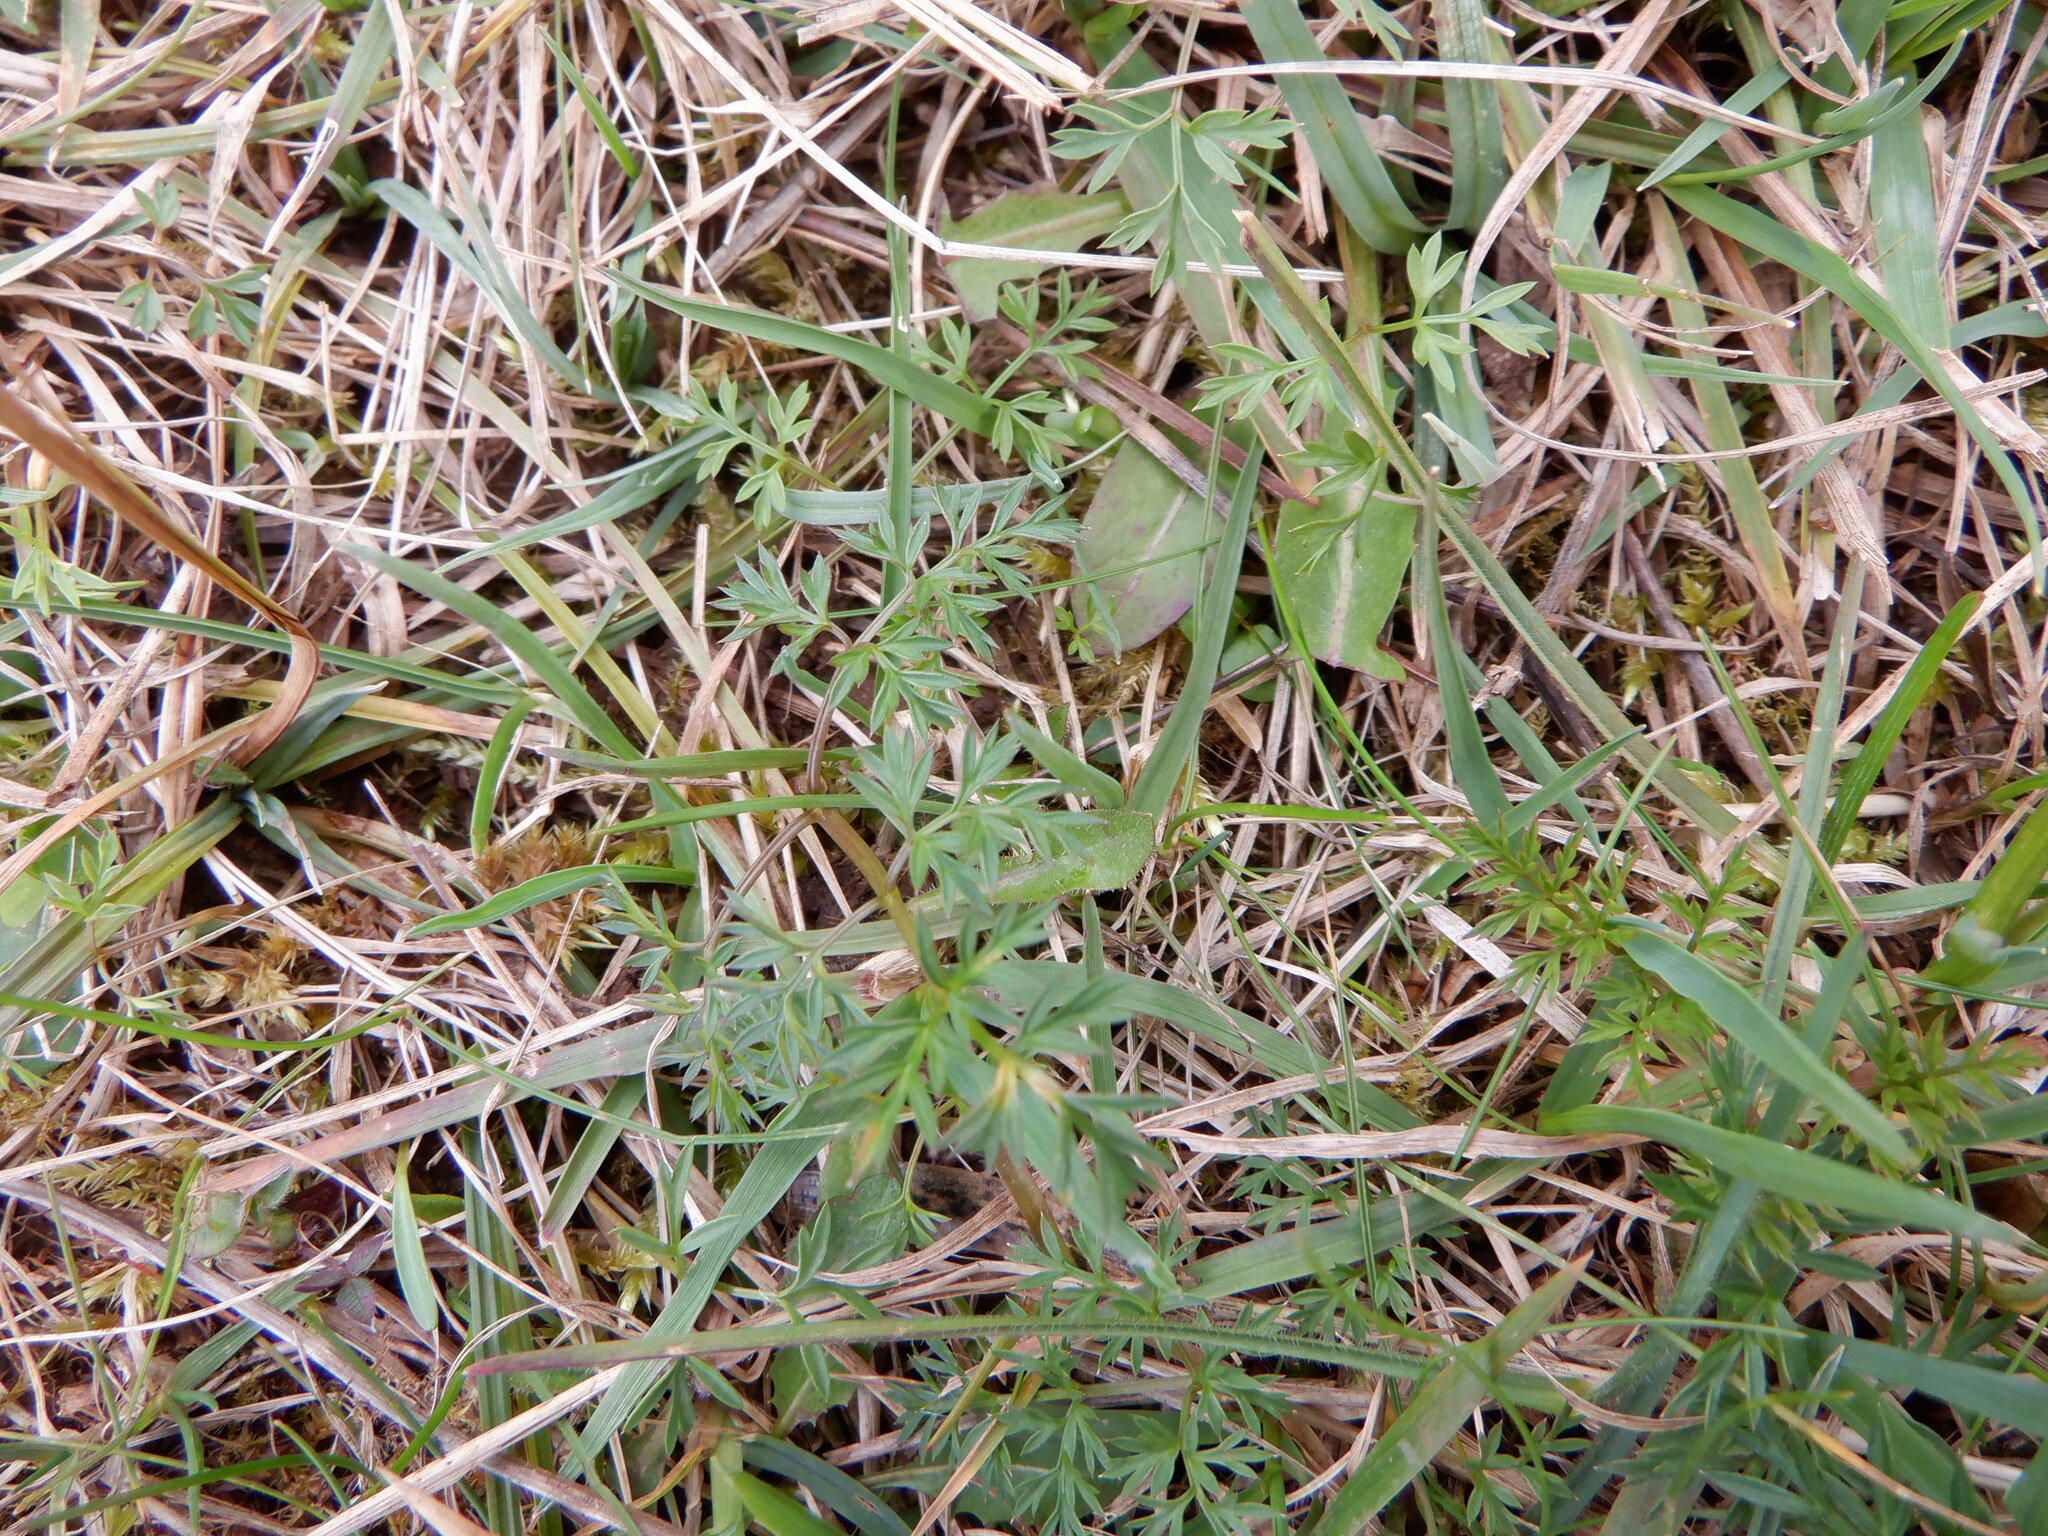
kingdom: Plantae
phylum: Tracheophyta
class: Magnoliopsida
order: Apiales
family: Apiaceae
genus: Conopodium
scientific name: Conopodium majus
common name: Pignut
